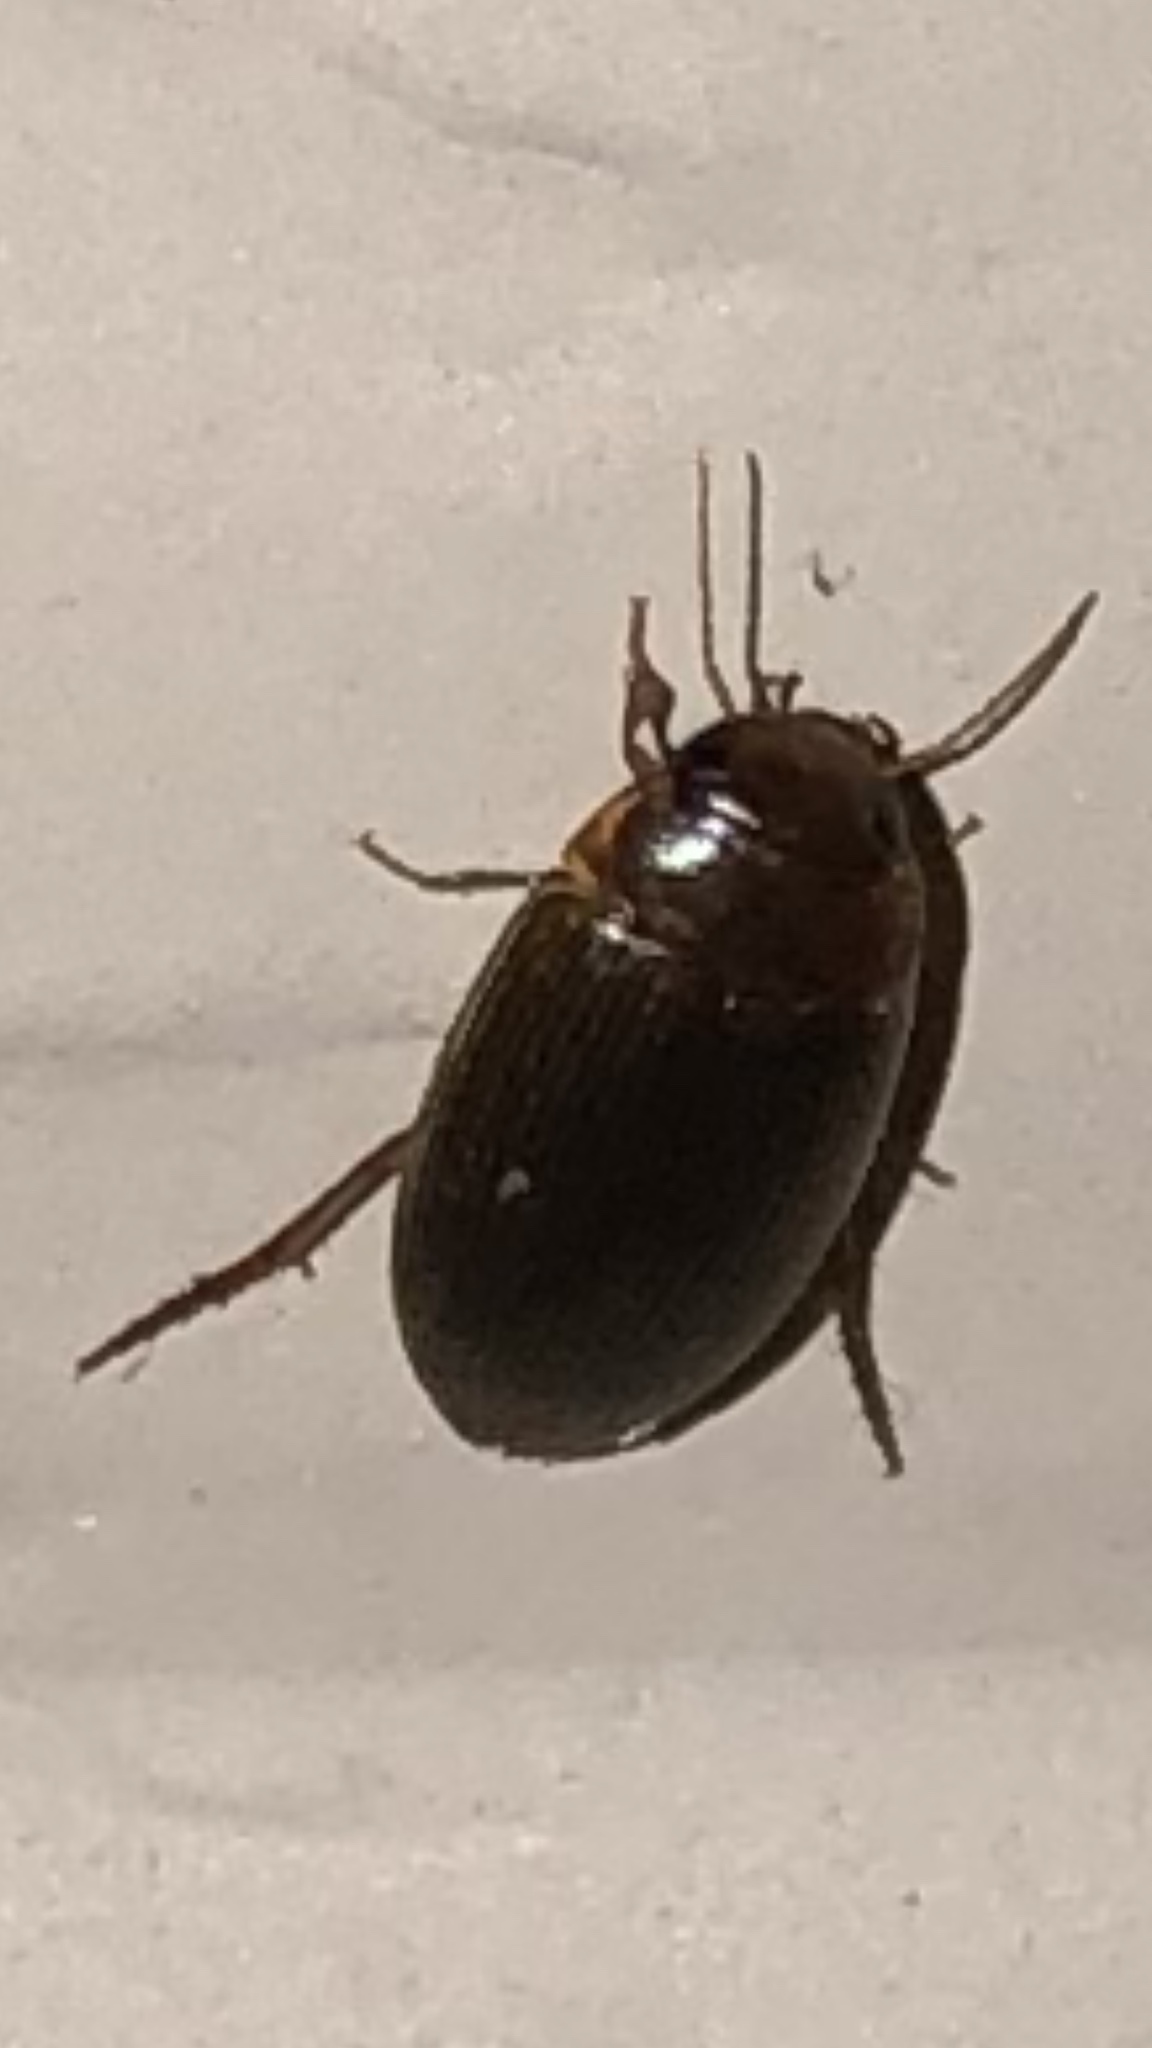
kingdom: Animalia
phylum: Arthropoda
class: Insecta
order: Coleoptera
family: Dytiscidae
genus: Copelatus
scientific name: Copelatus glyphicus
